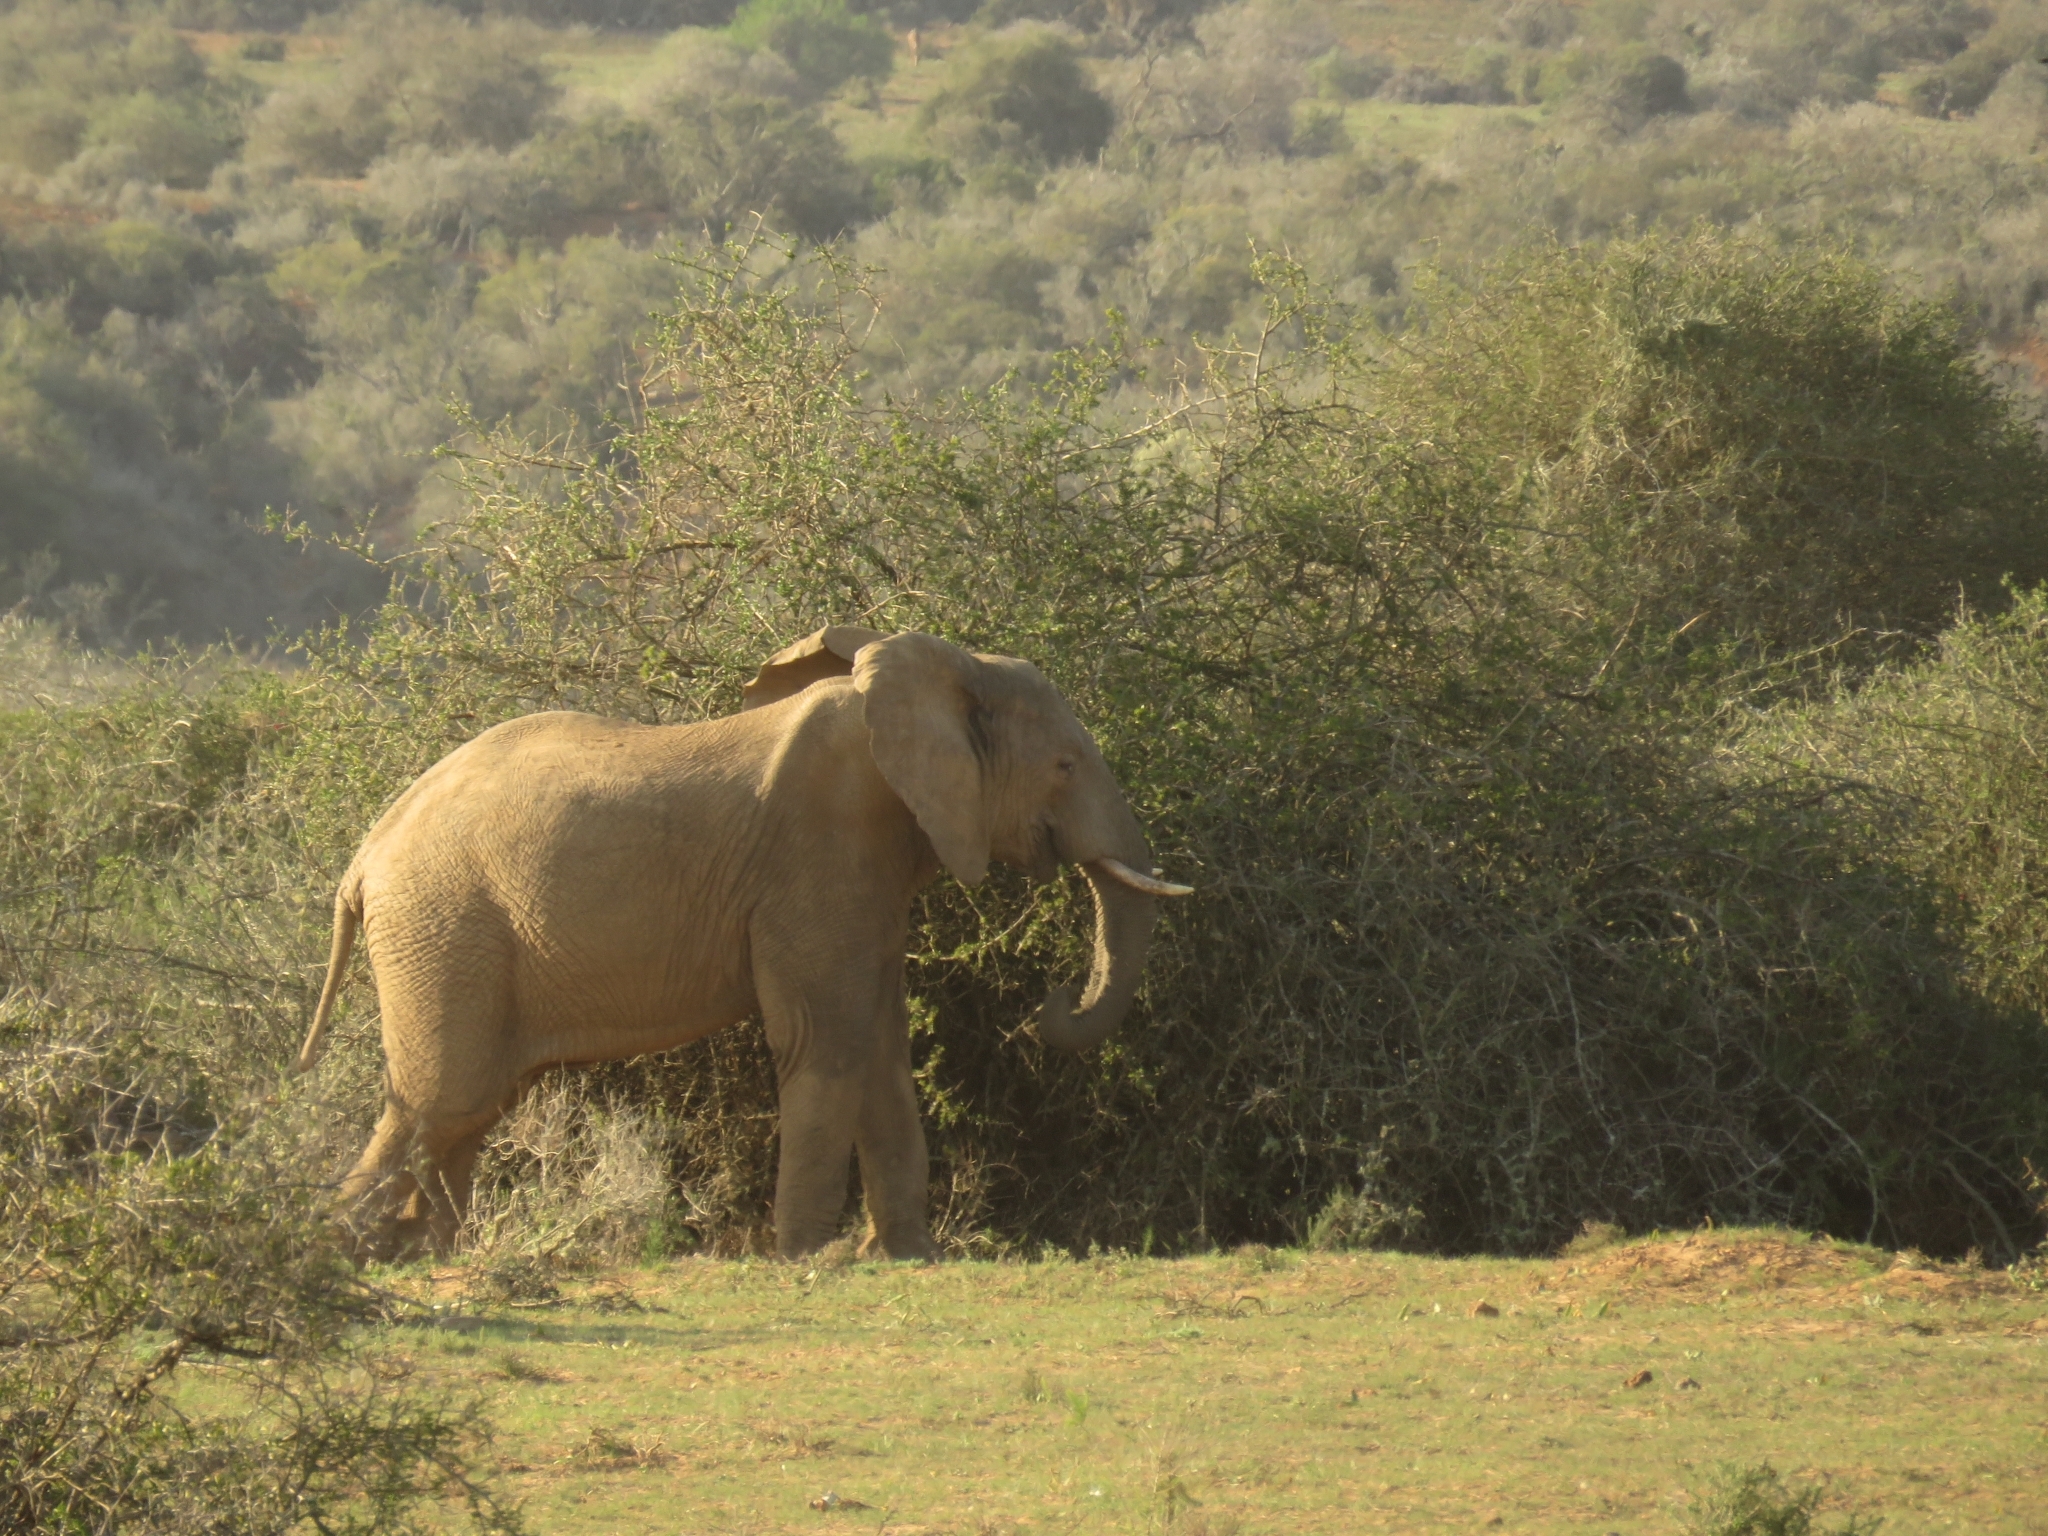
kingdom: Animalia
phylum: Chordata
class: Mammalia
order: Proboscidea
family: Elephantidae
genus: Loxodonta
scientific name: Loxodonta africana
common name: African elephant
